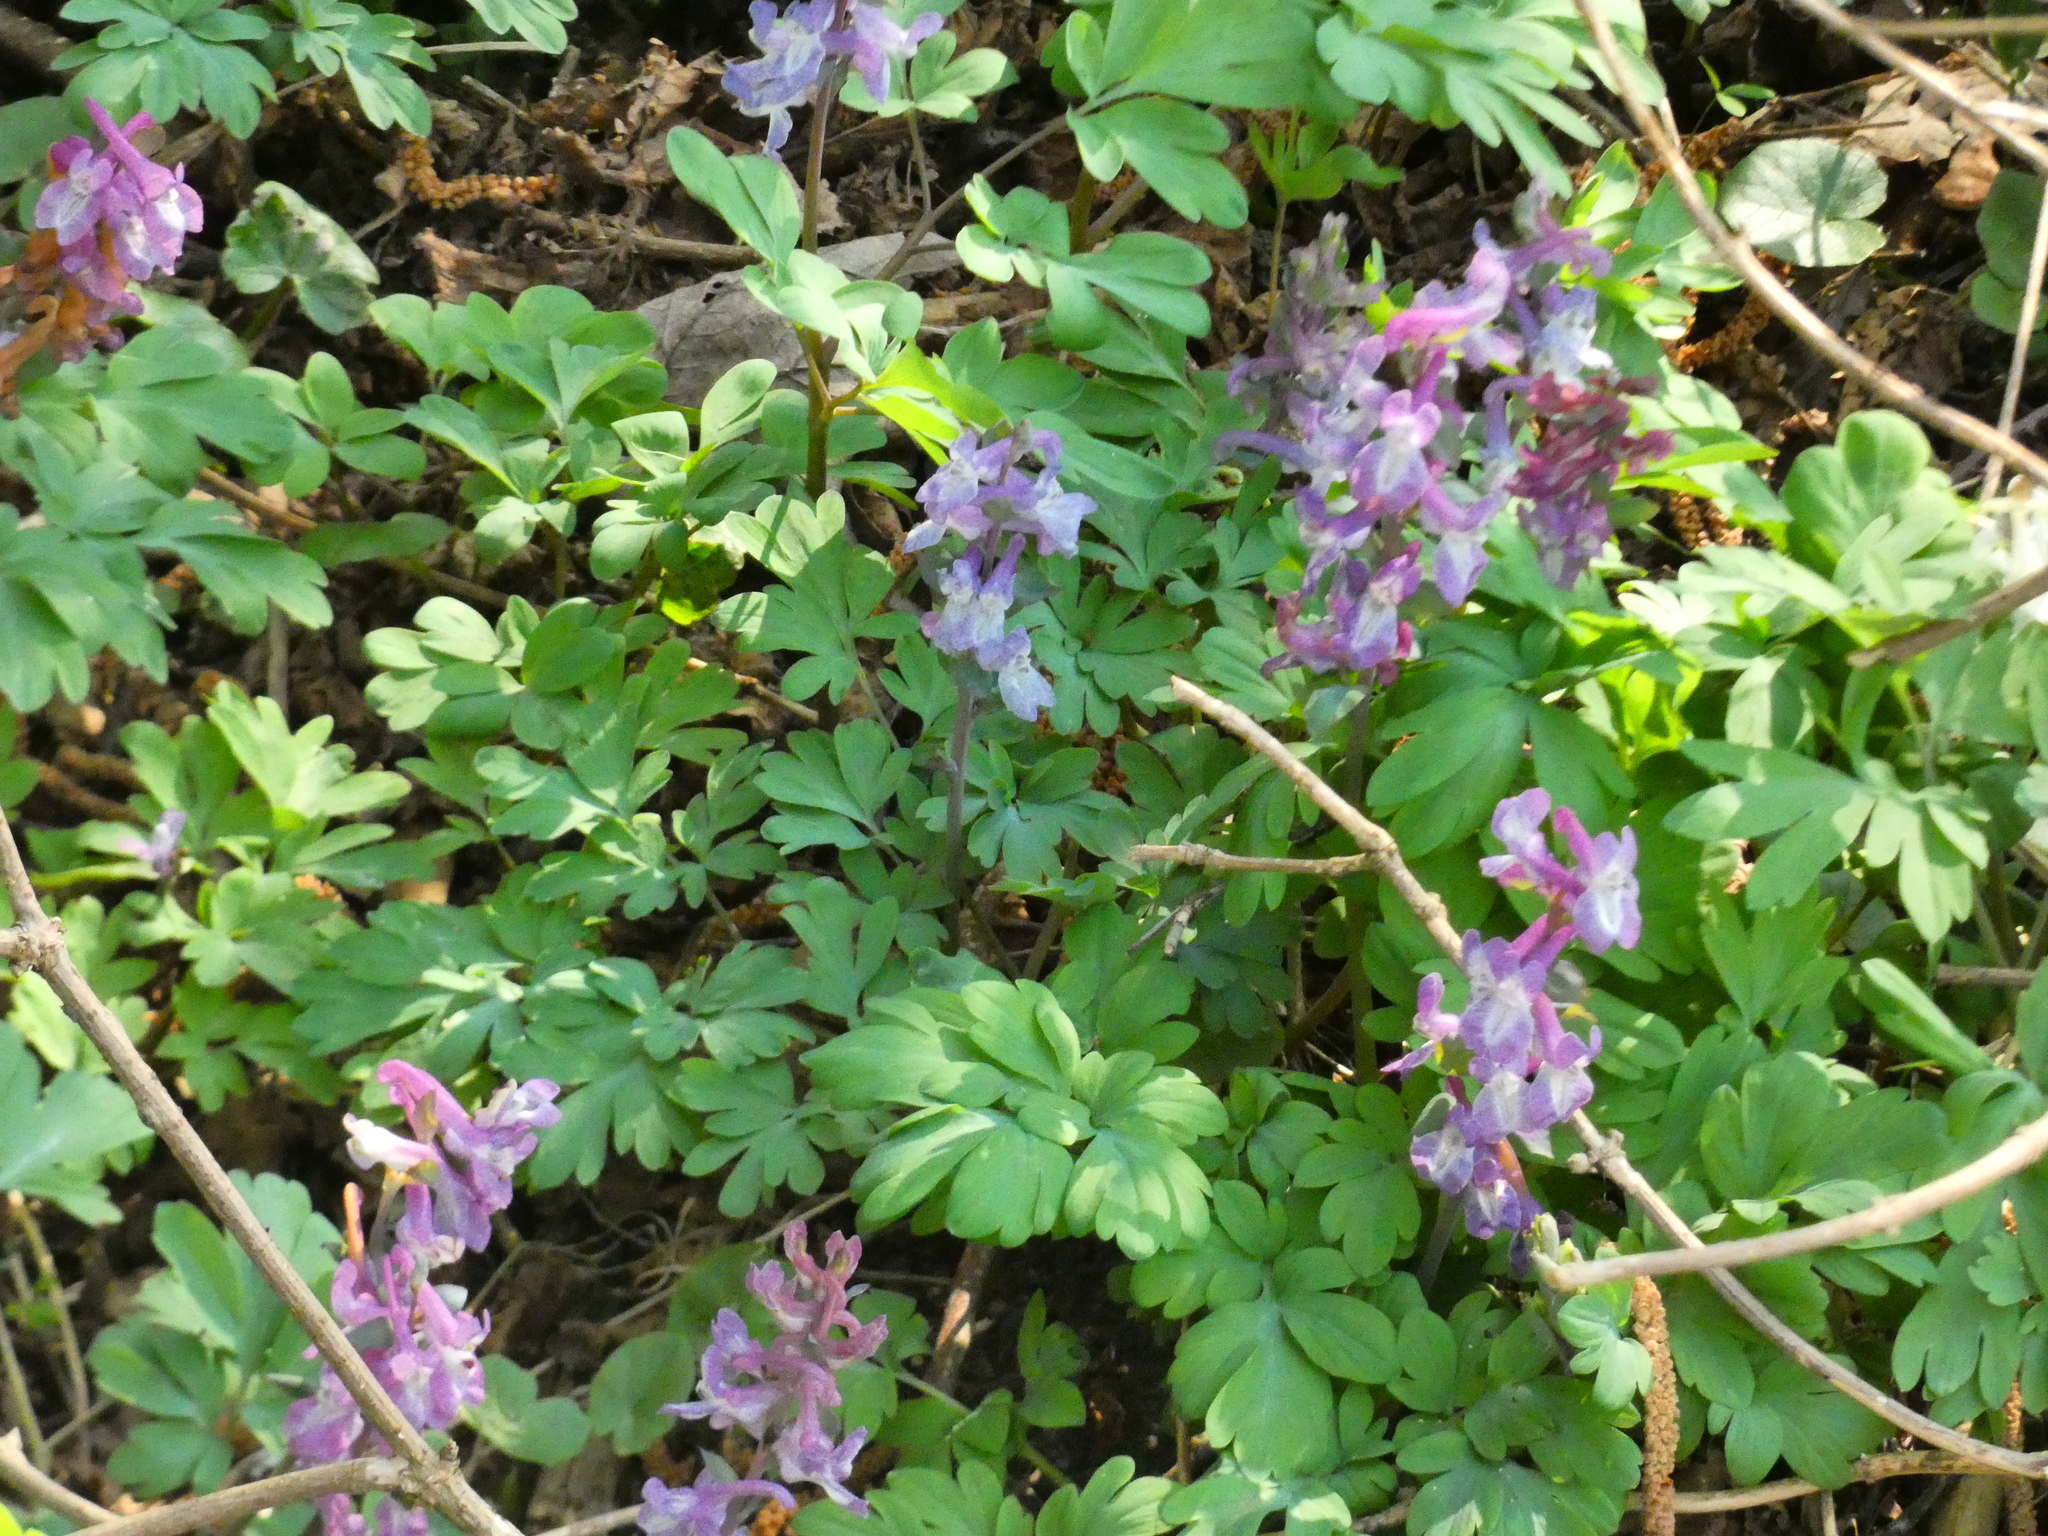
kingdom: Plantae
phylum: Tracheophyta
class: Magnoliopsida
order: Ranunculales
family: Papaveraceae
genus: Corydalis
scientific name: Corydalis cava
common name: Hollowroot
